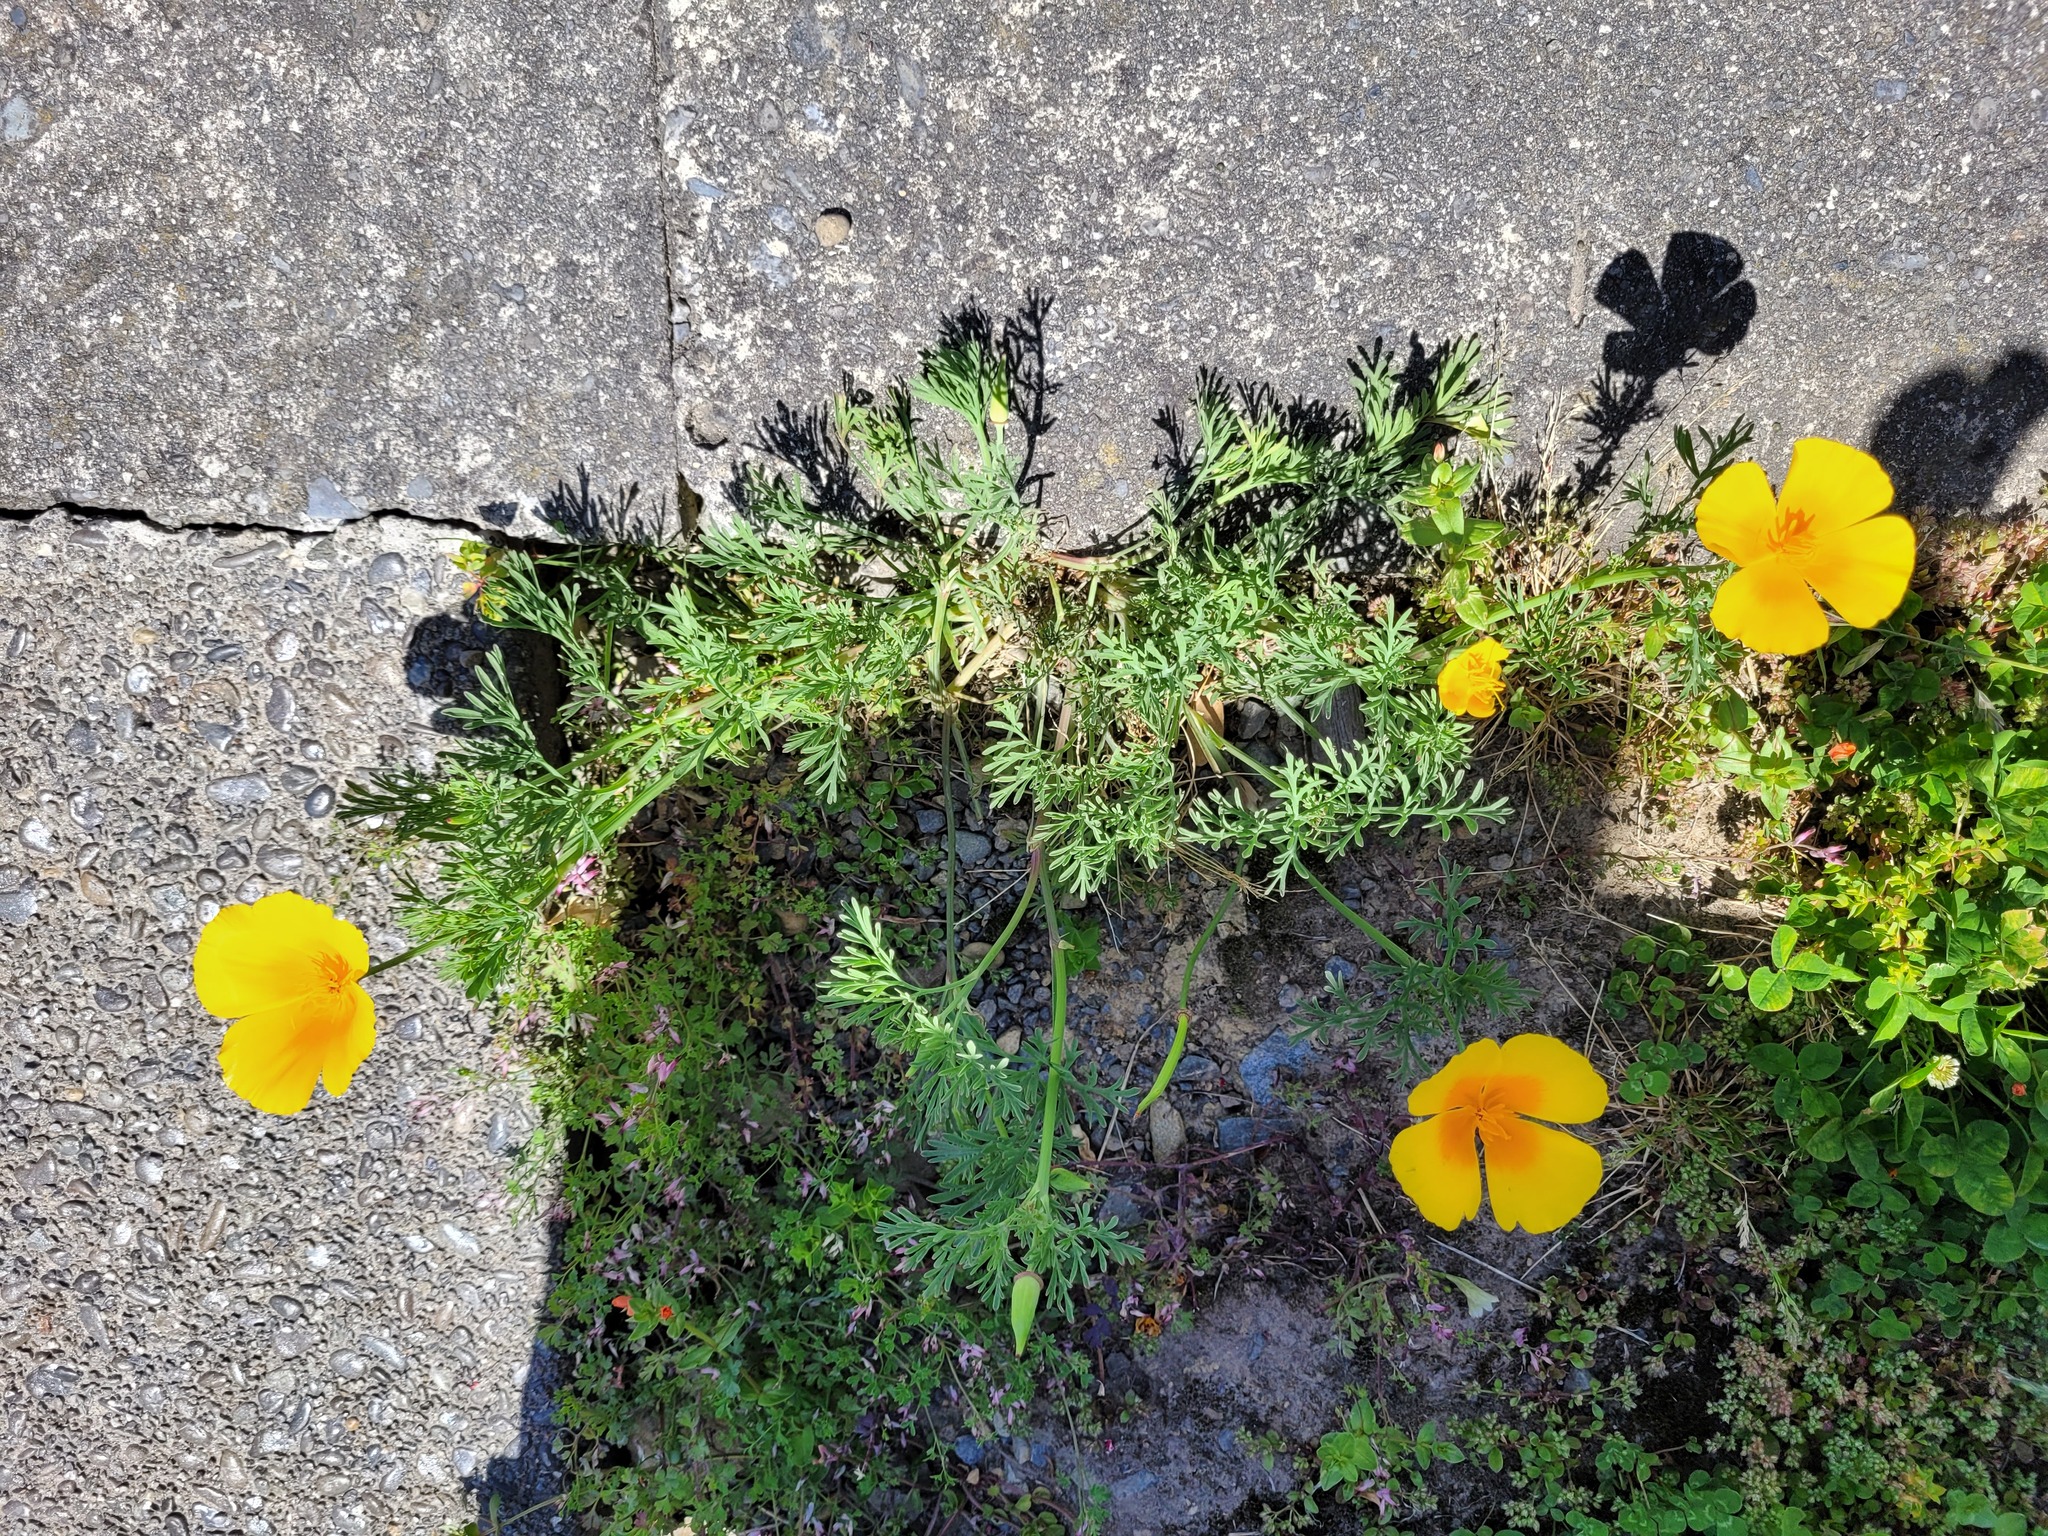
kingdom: Plantae
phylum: Tracheophyta
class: Magnoliopsida
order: Ranunculales
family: Papaveraceae
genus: Eschscholzia
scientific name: Eschscholzia californica
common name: California poppy
